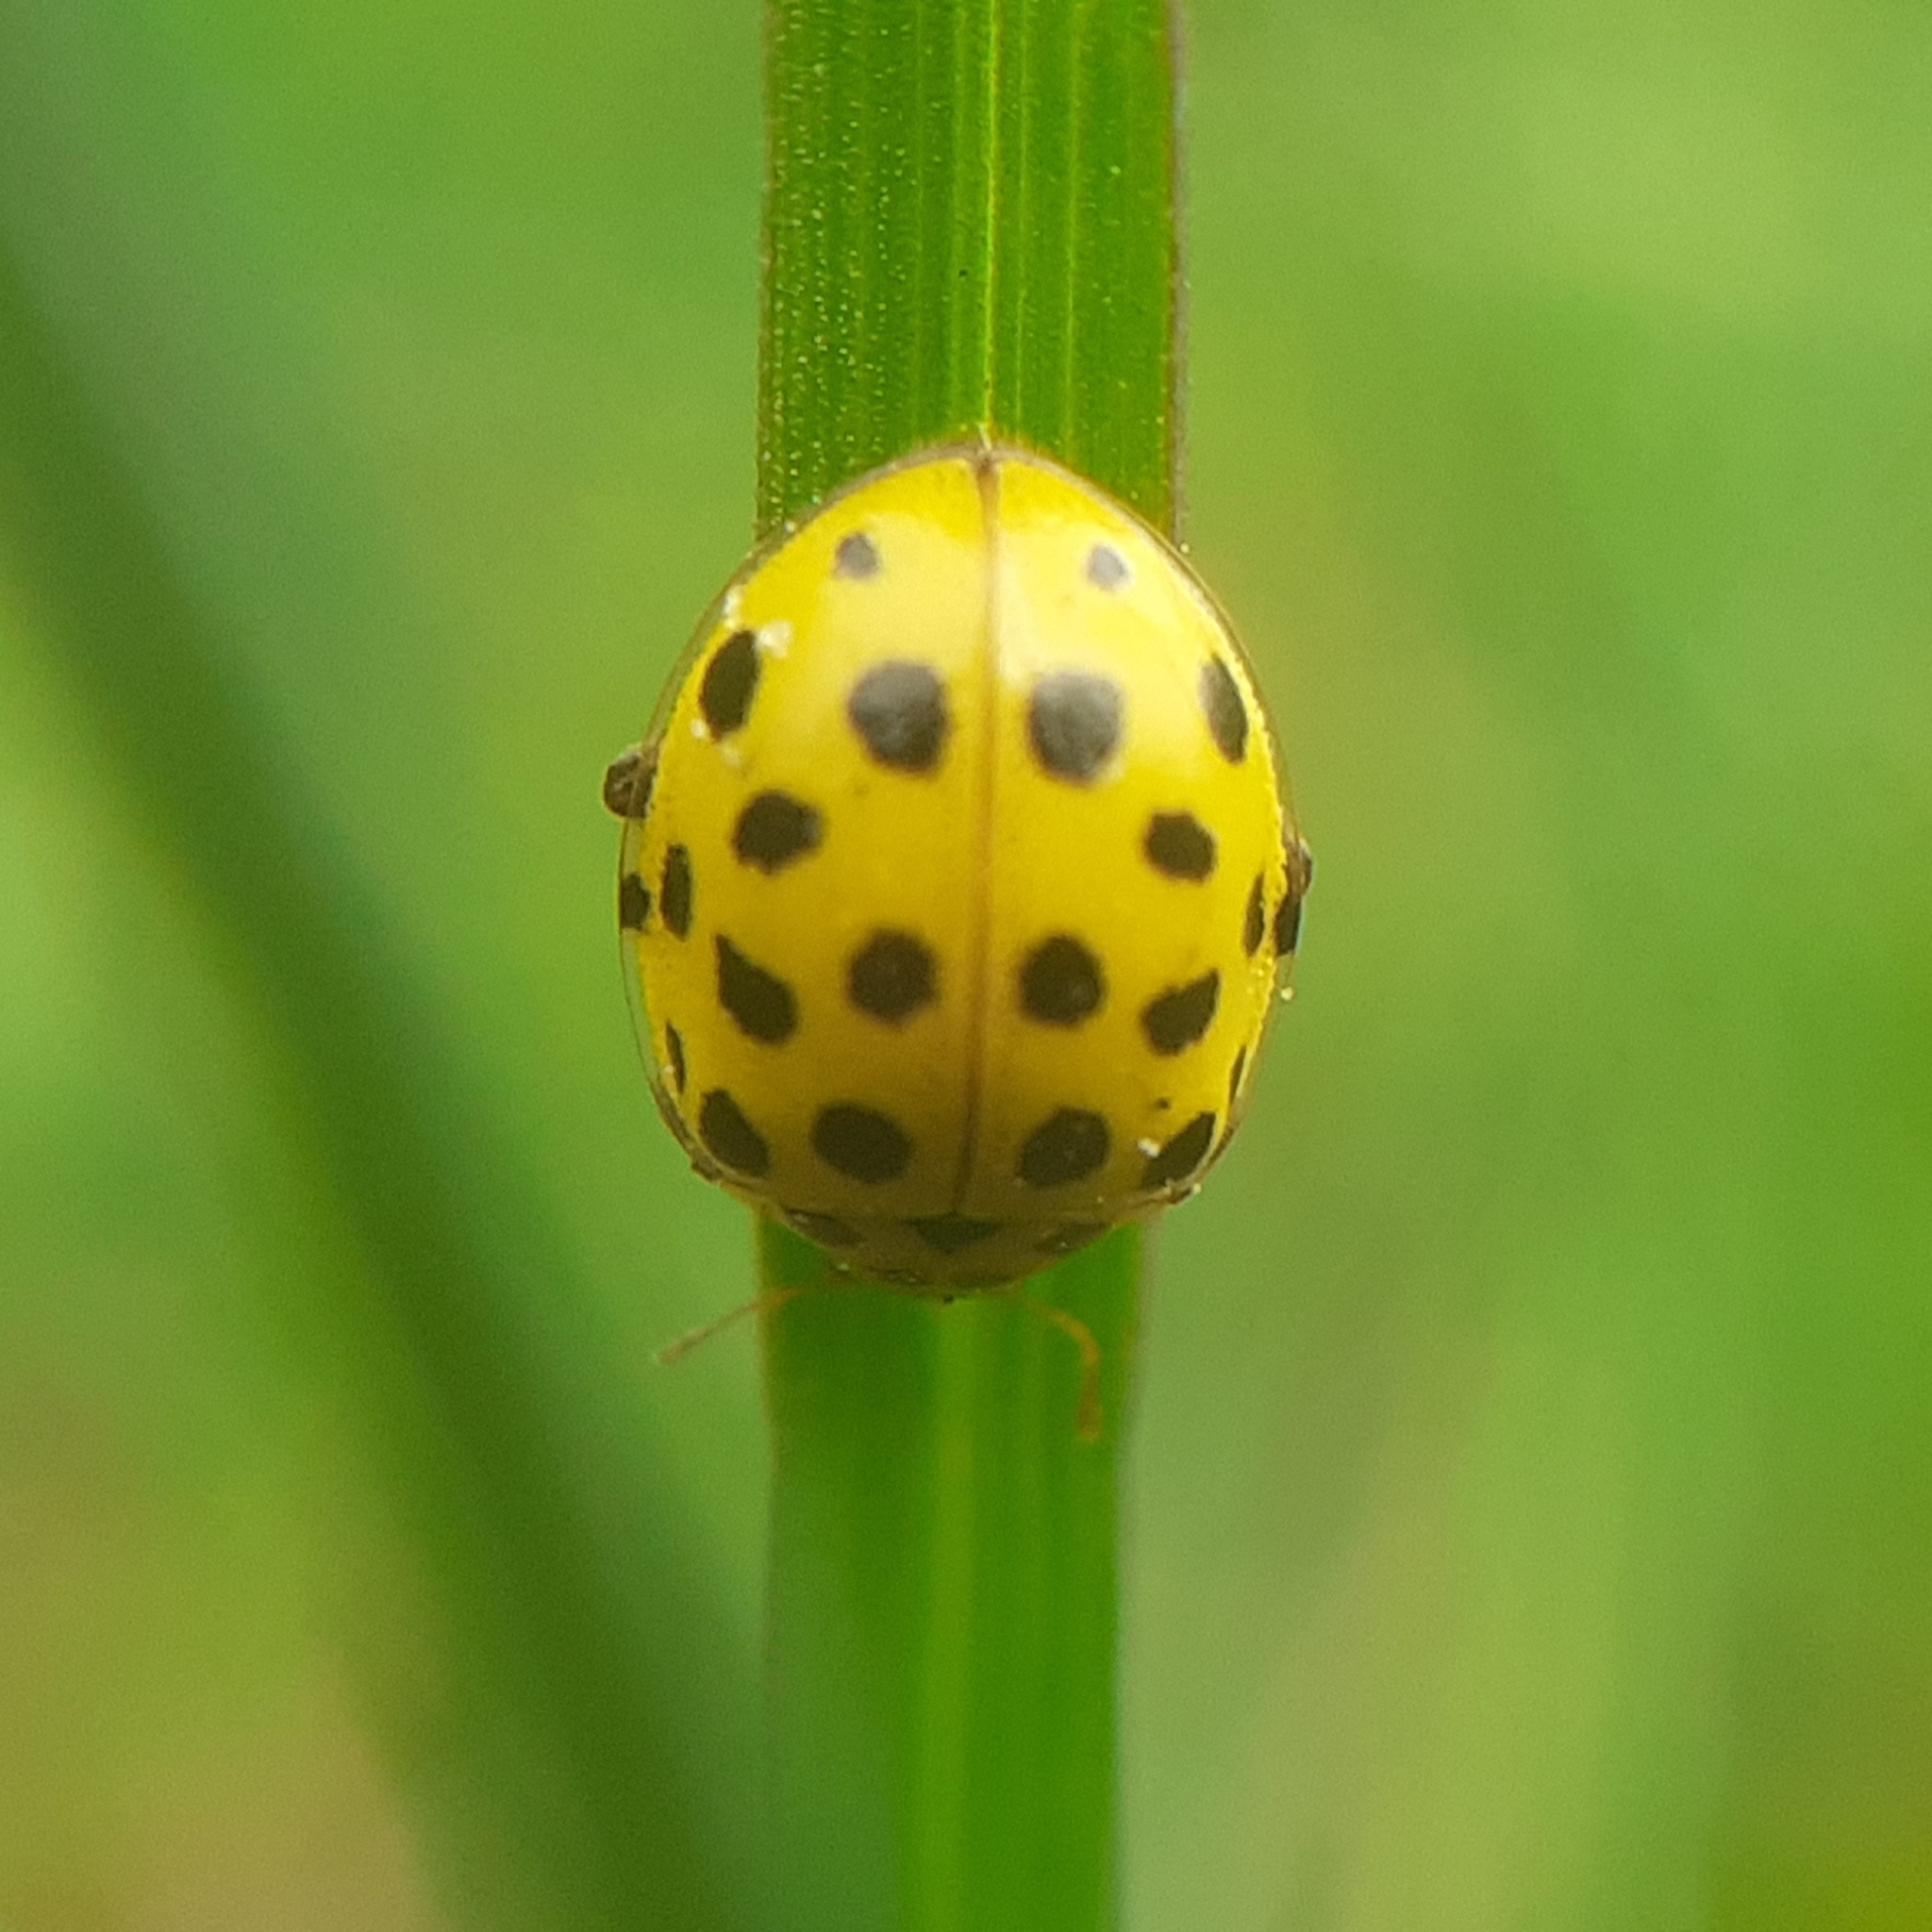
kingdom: Animalia
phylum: Arthropoda
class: Insecta
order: Coleoptera
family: Coccinellidae
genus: Psyllobora
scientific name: Psyllobora vigintiduopunctata
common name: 22-spot ladybird
